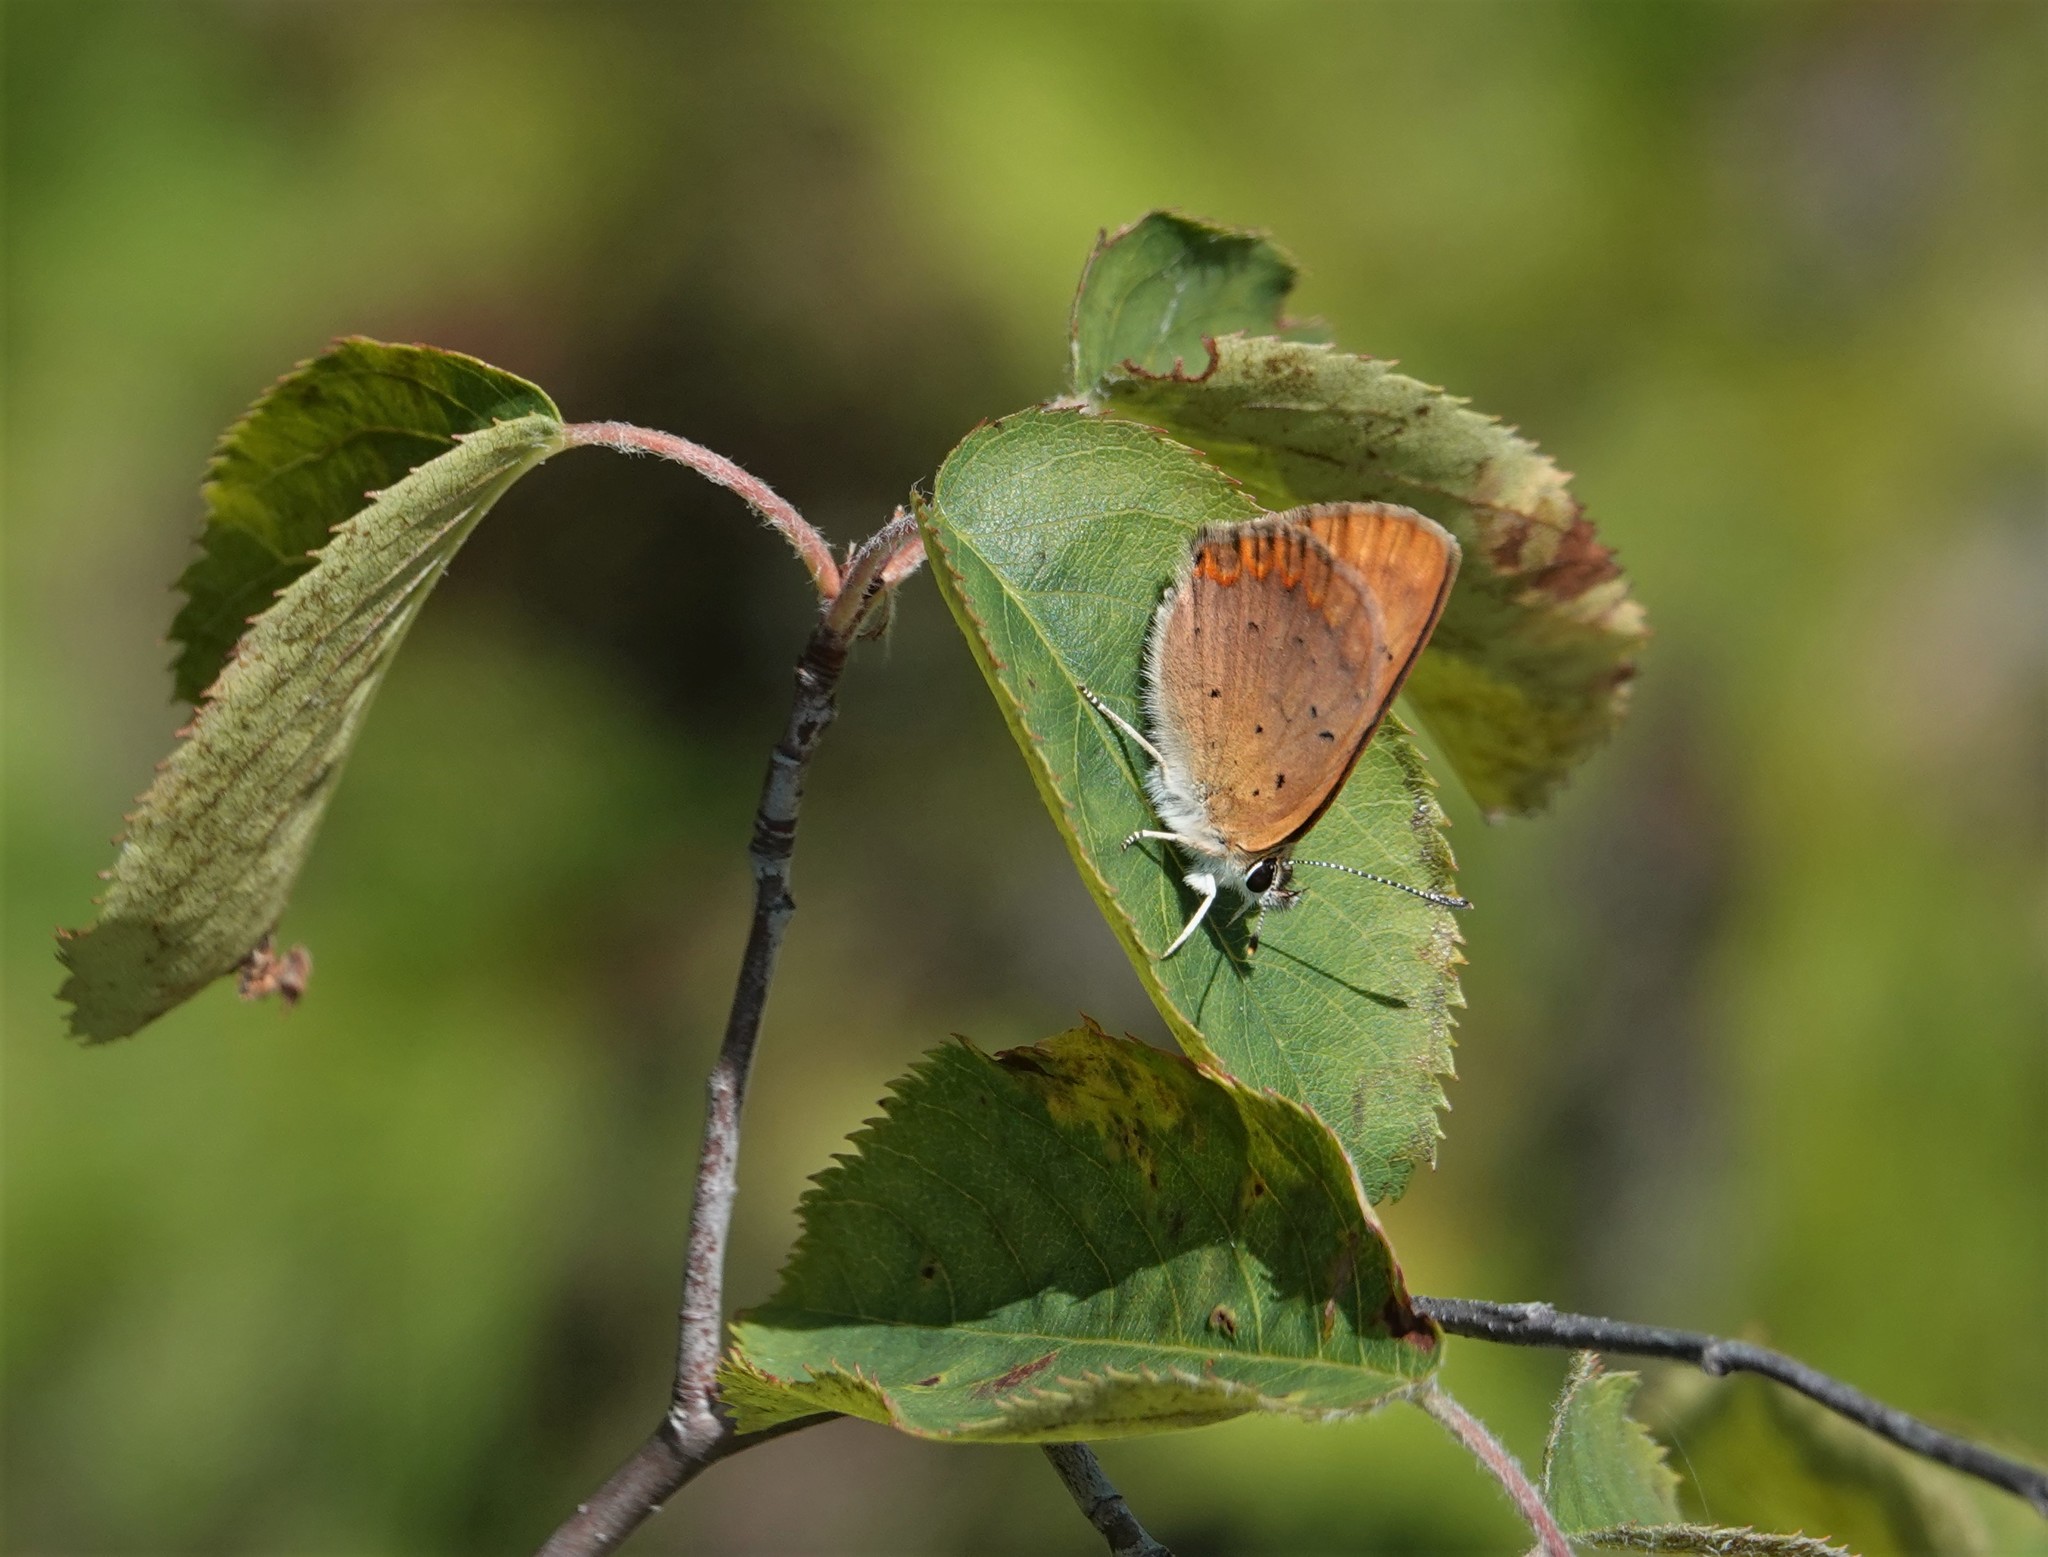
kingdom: Animalia
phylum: Arthropoda
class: Insecta
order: Lepidoptera
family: Lycaenidae
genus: Tharsalea
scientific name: Tharsalea dorcas
